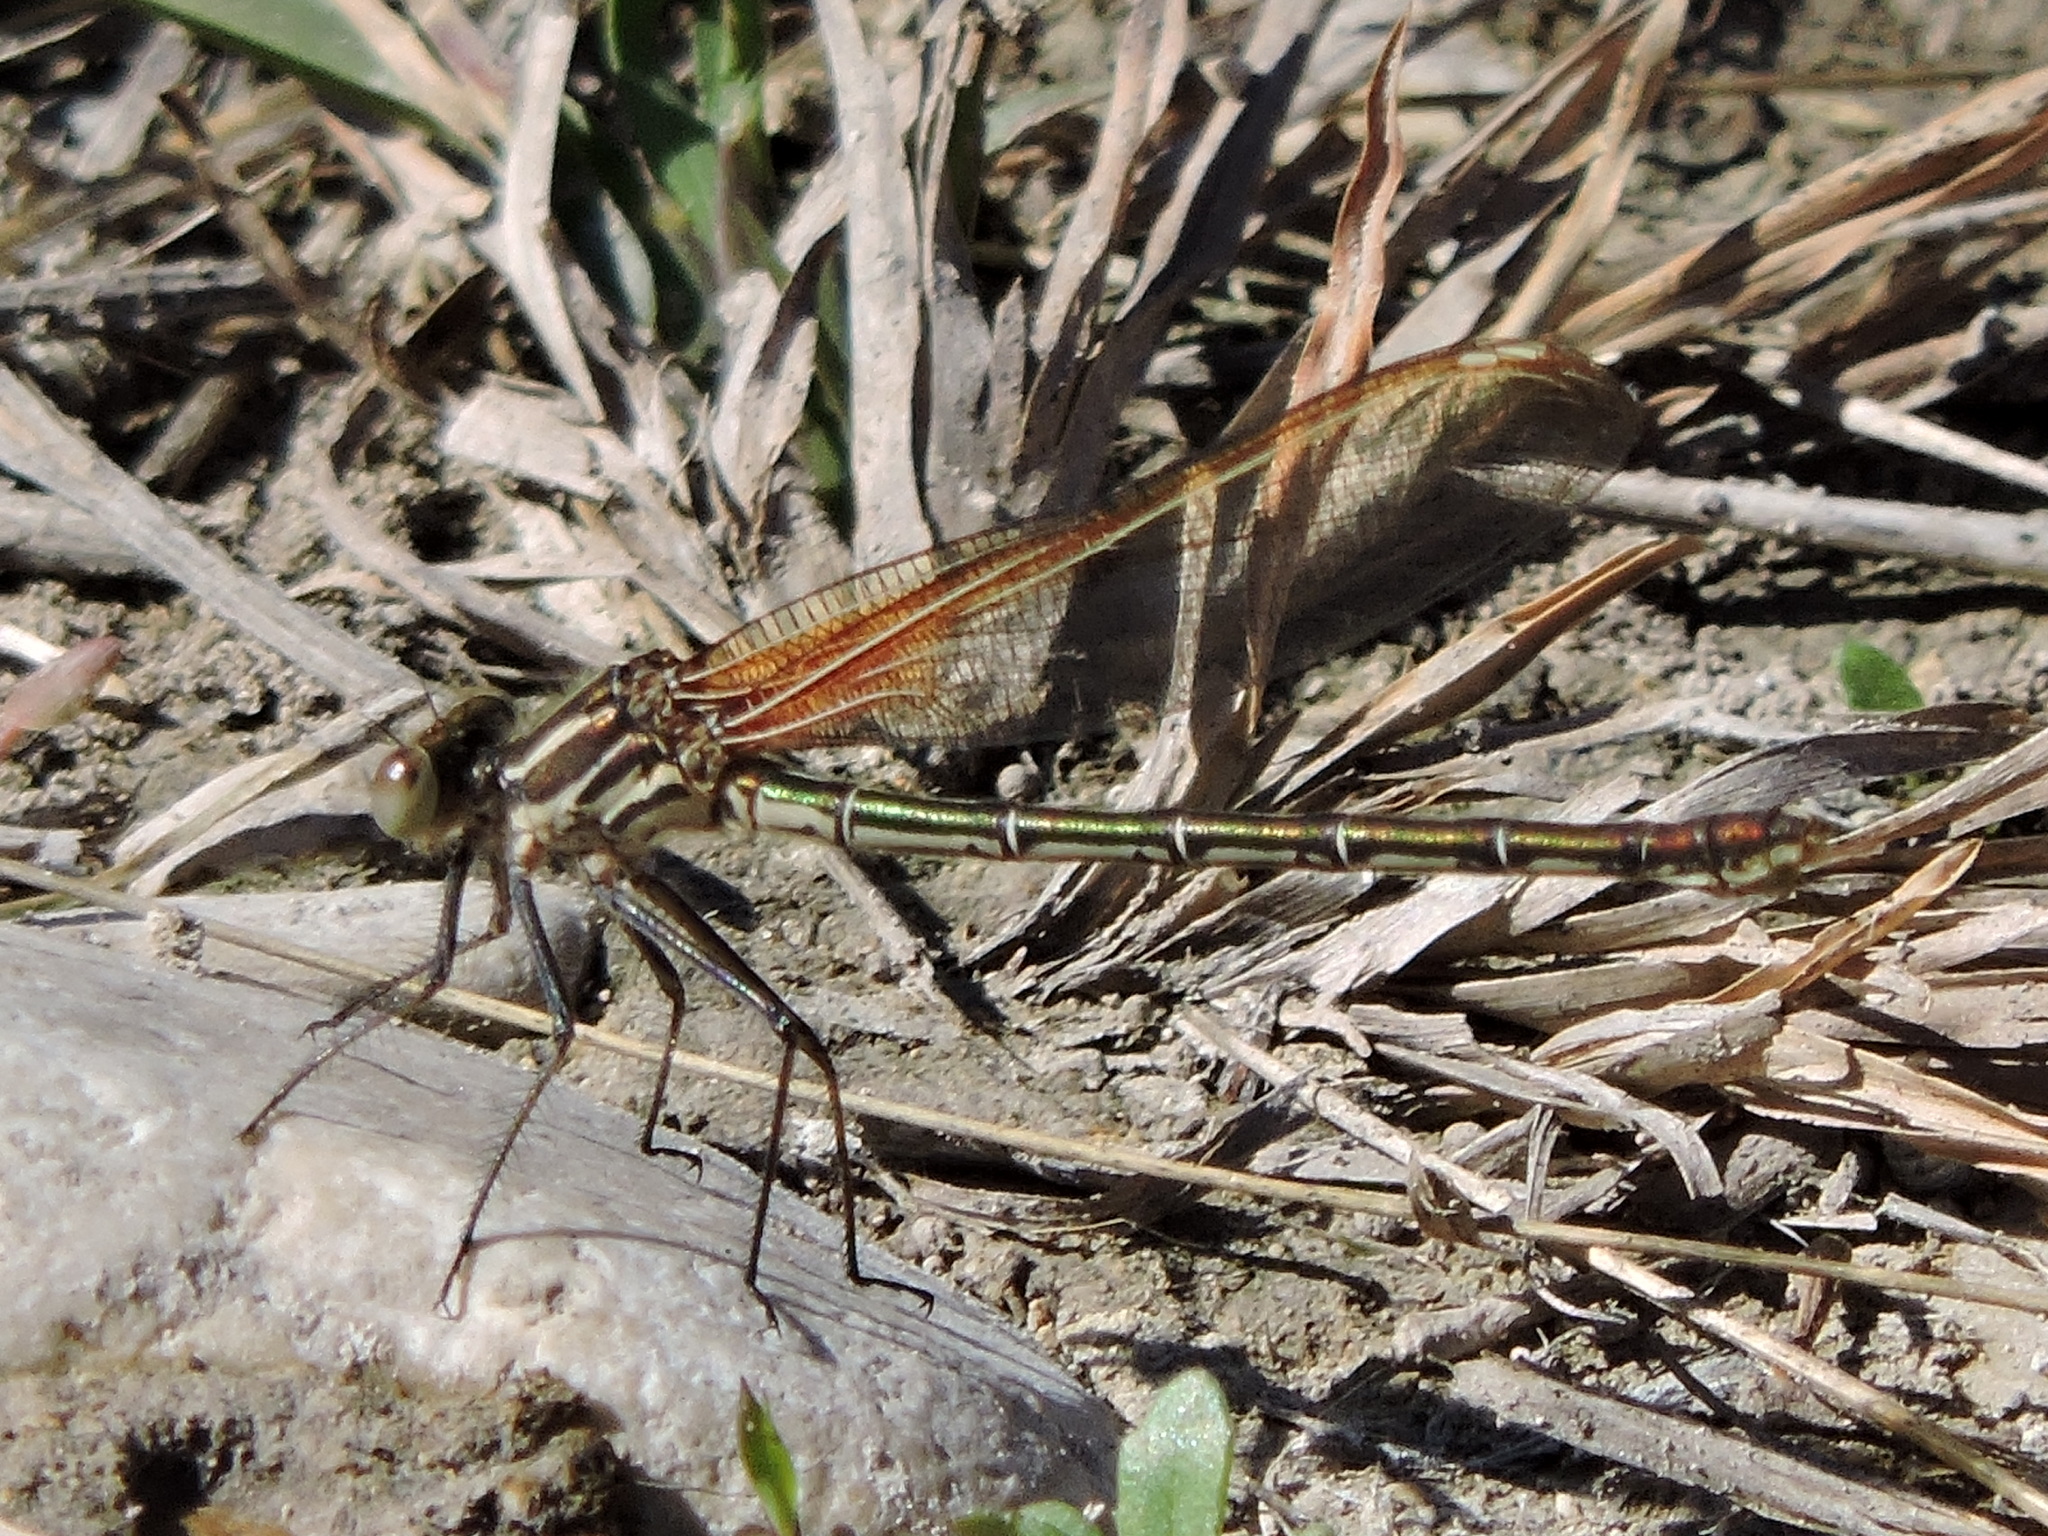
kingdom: Animalia
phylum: Arthropoda
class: Insecta
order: Odonata
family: Calopterygidae
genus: Hetaerina
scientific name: Hetaerina americana
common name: American rubyspot
